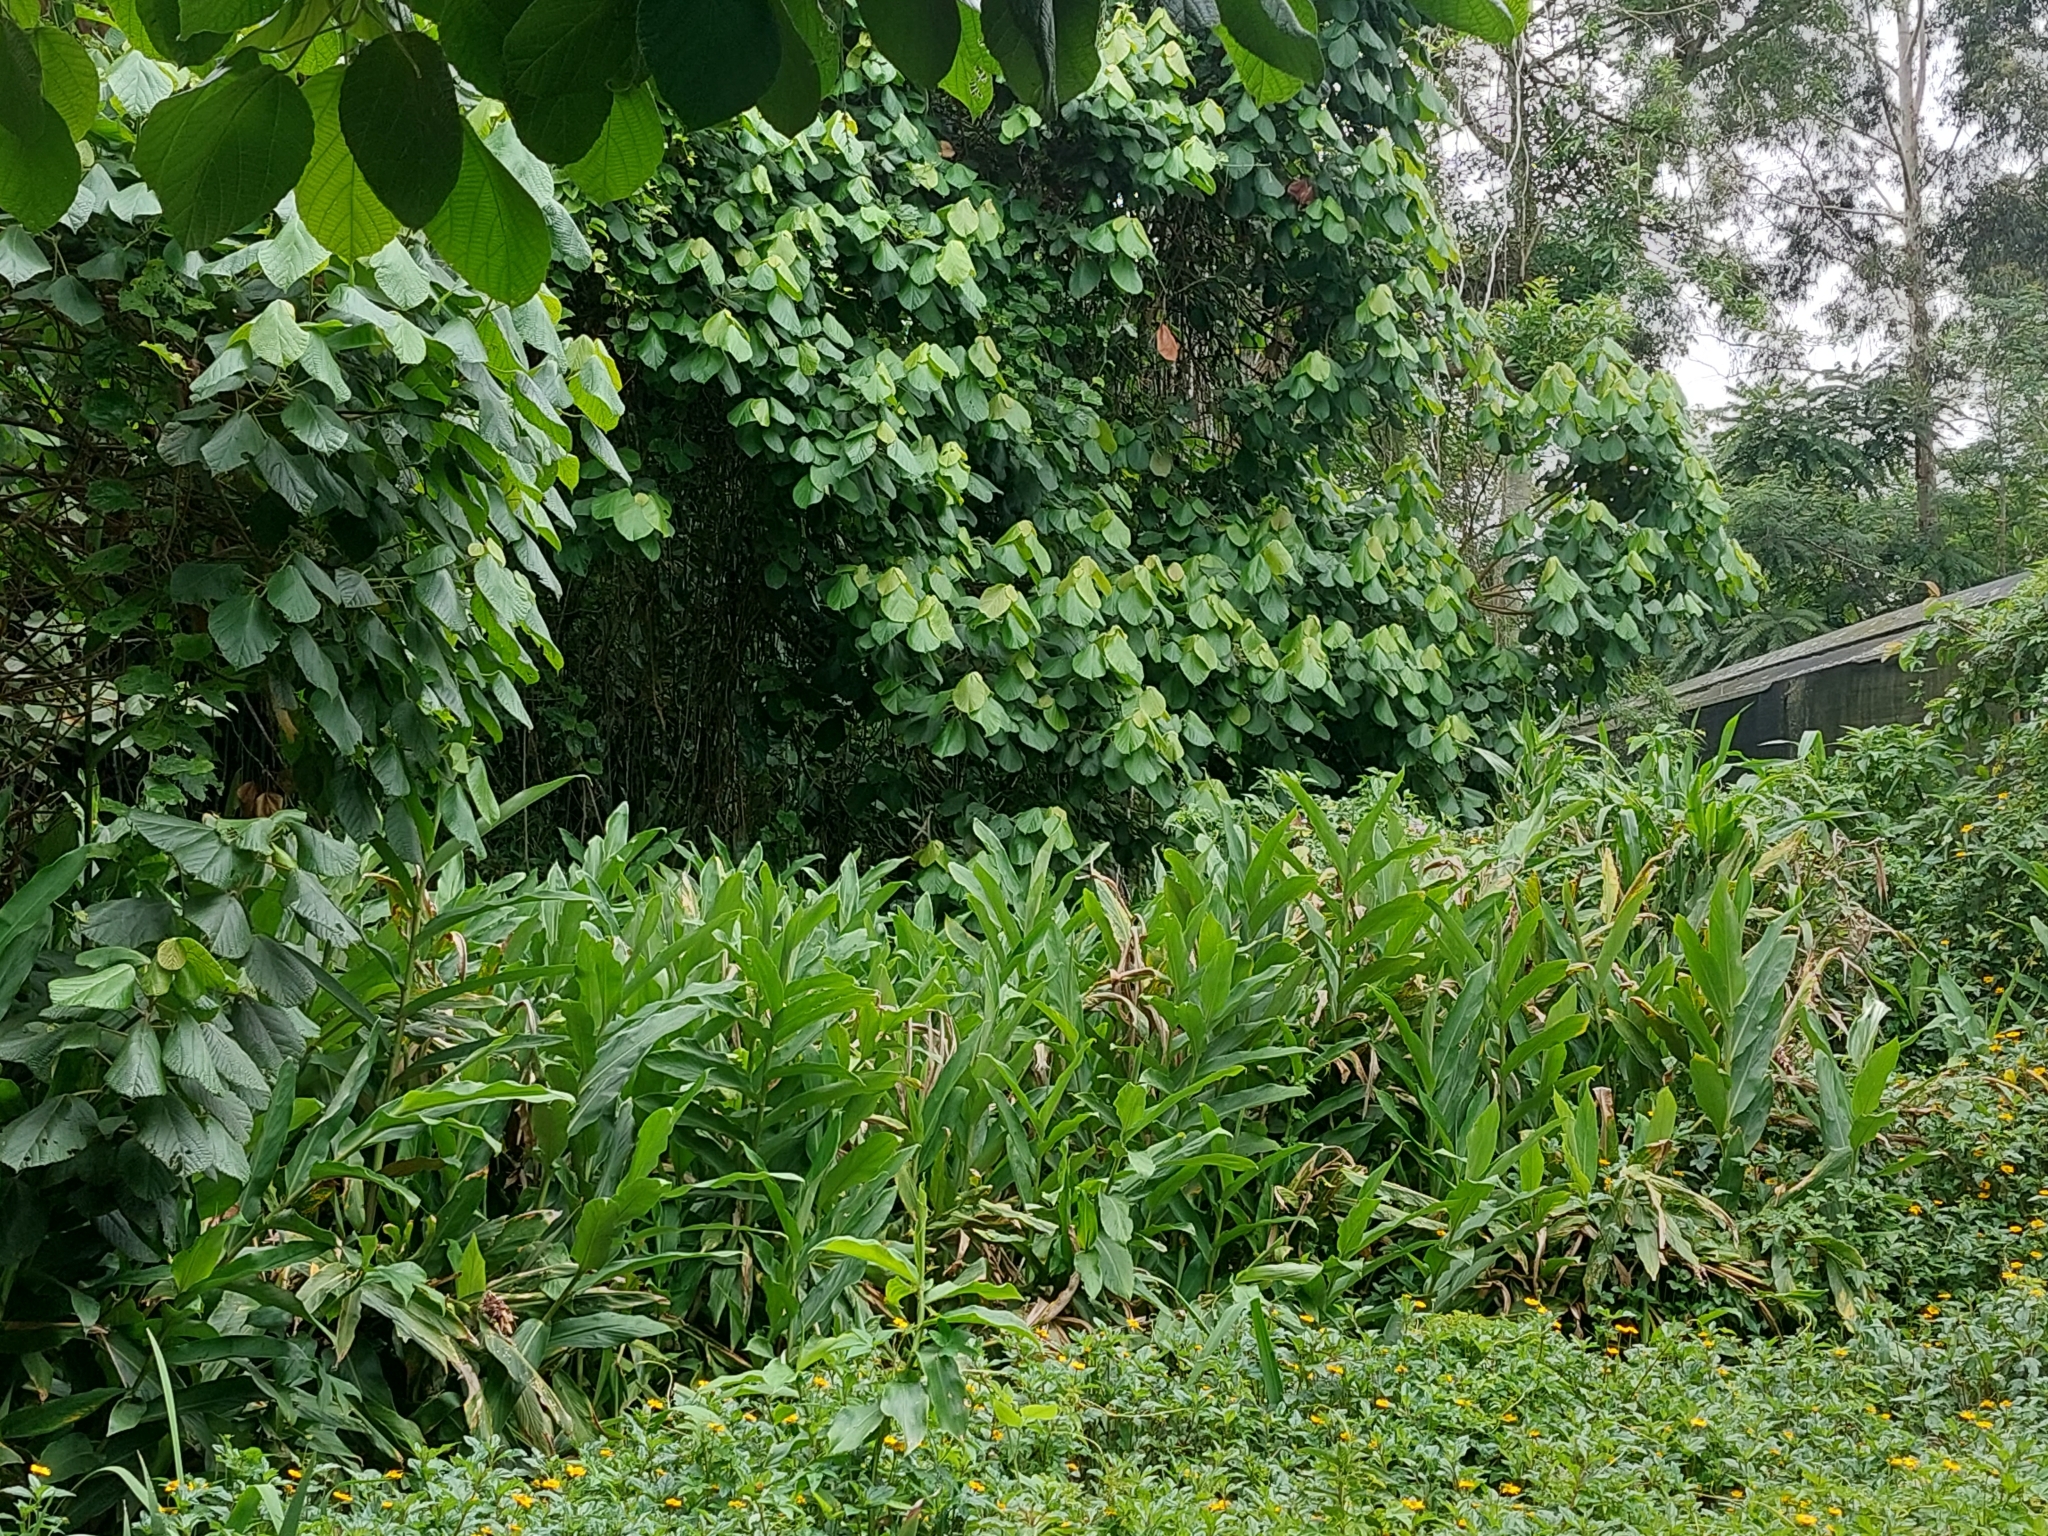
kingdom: Plantae
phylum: Tracheophyta
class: Liliopsida
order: Zingiberales
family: Zingiberaceae
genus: Hedychium
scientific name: Hedychium coronarium
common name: White garland-lily
